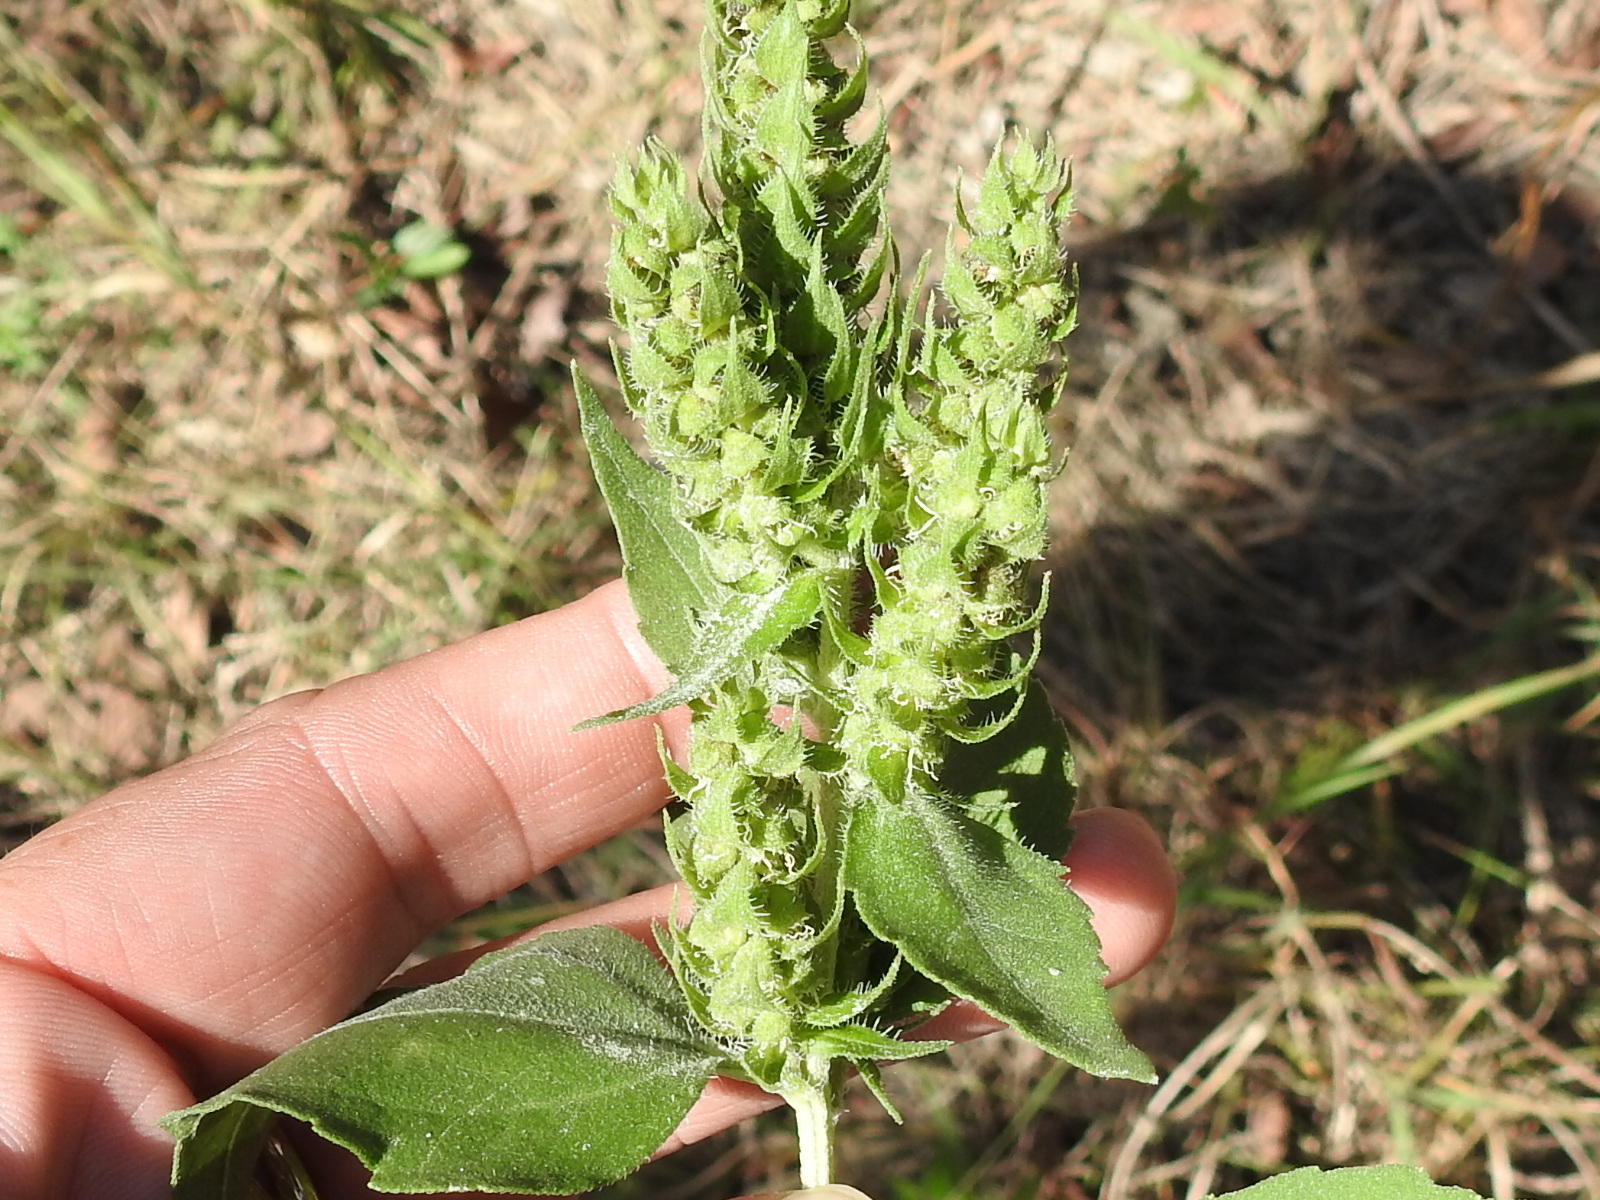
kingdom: Plantae
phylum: Tracheophyta
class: Magnoliopsida
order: Asterales
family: Asteraceae
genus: Iva
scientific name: Iva annua
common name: Marsh-elder
